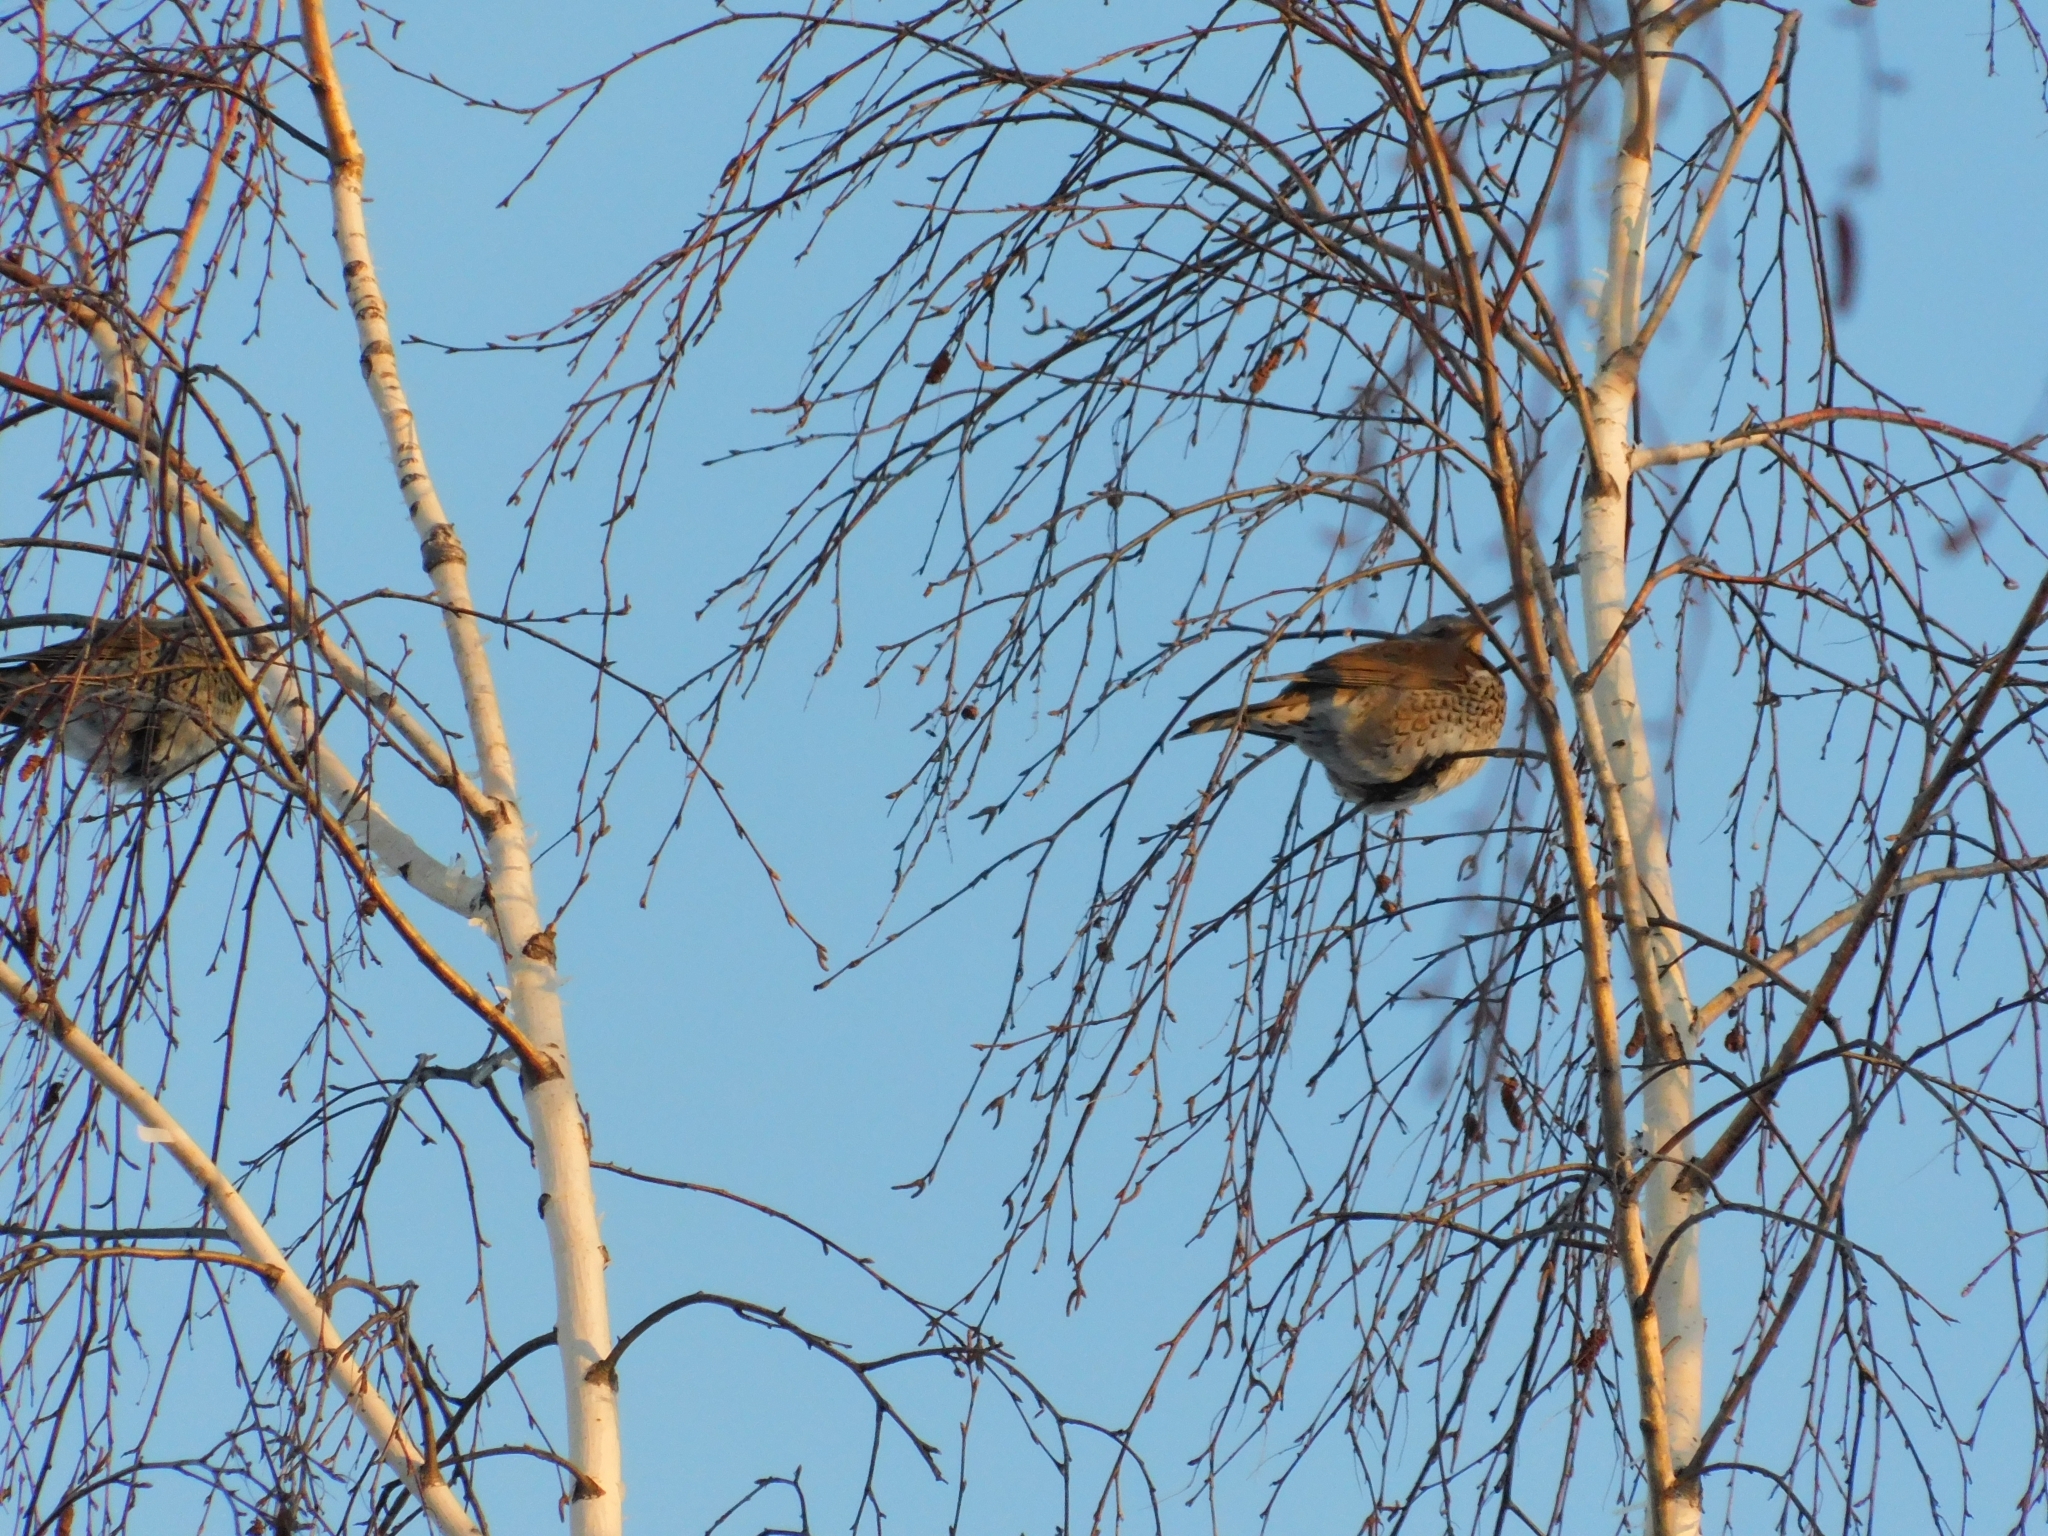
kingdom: Animalia
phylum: Chordata
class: Aves
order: Passeriformes
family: Turdidae
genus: Turdus
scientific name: Turdus pilaris
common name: Fieldfare
